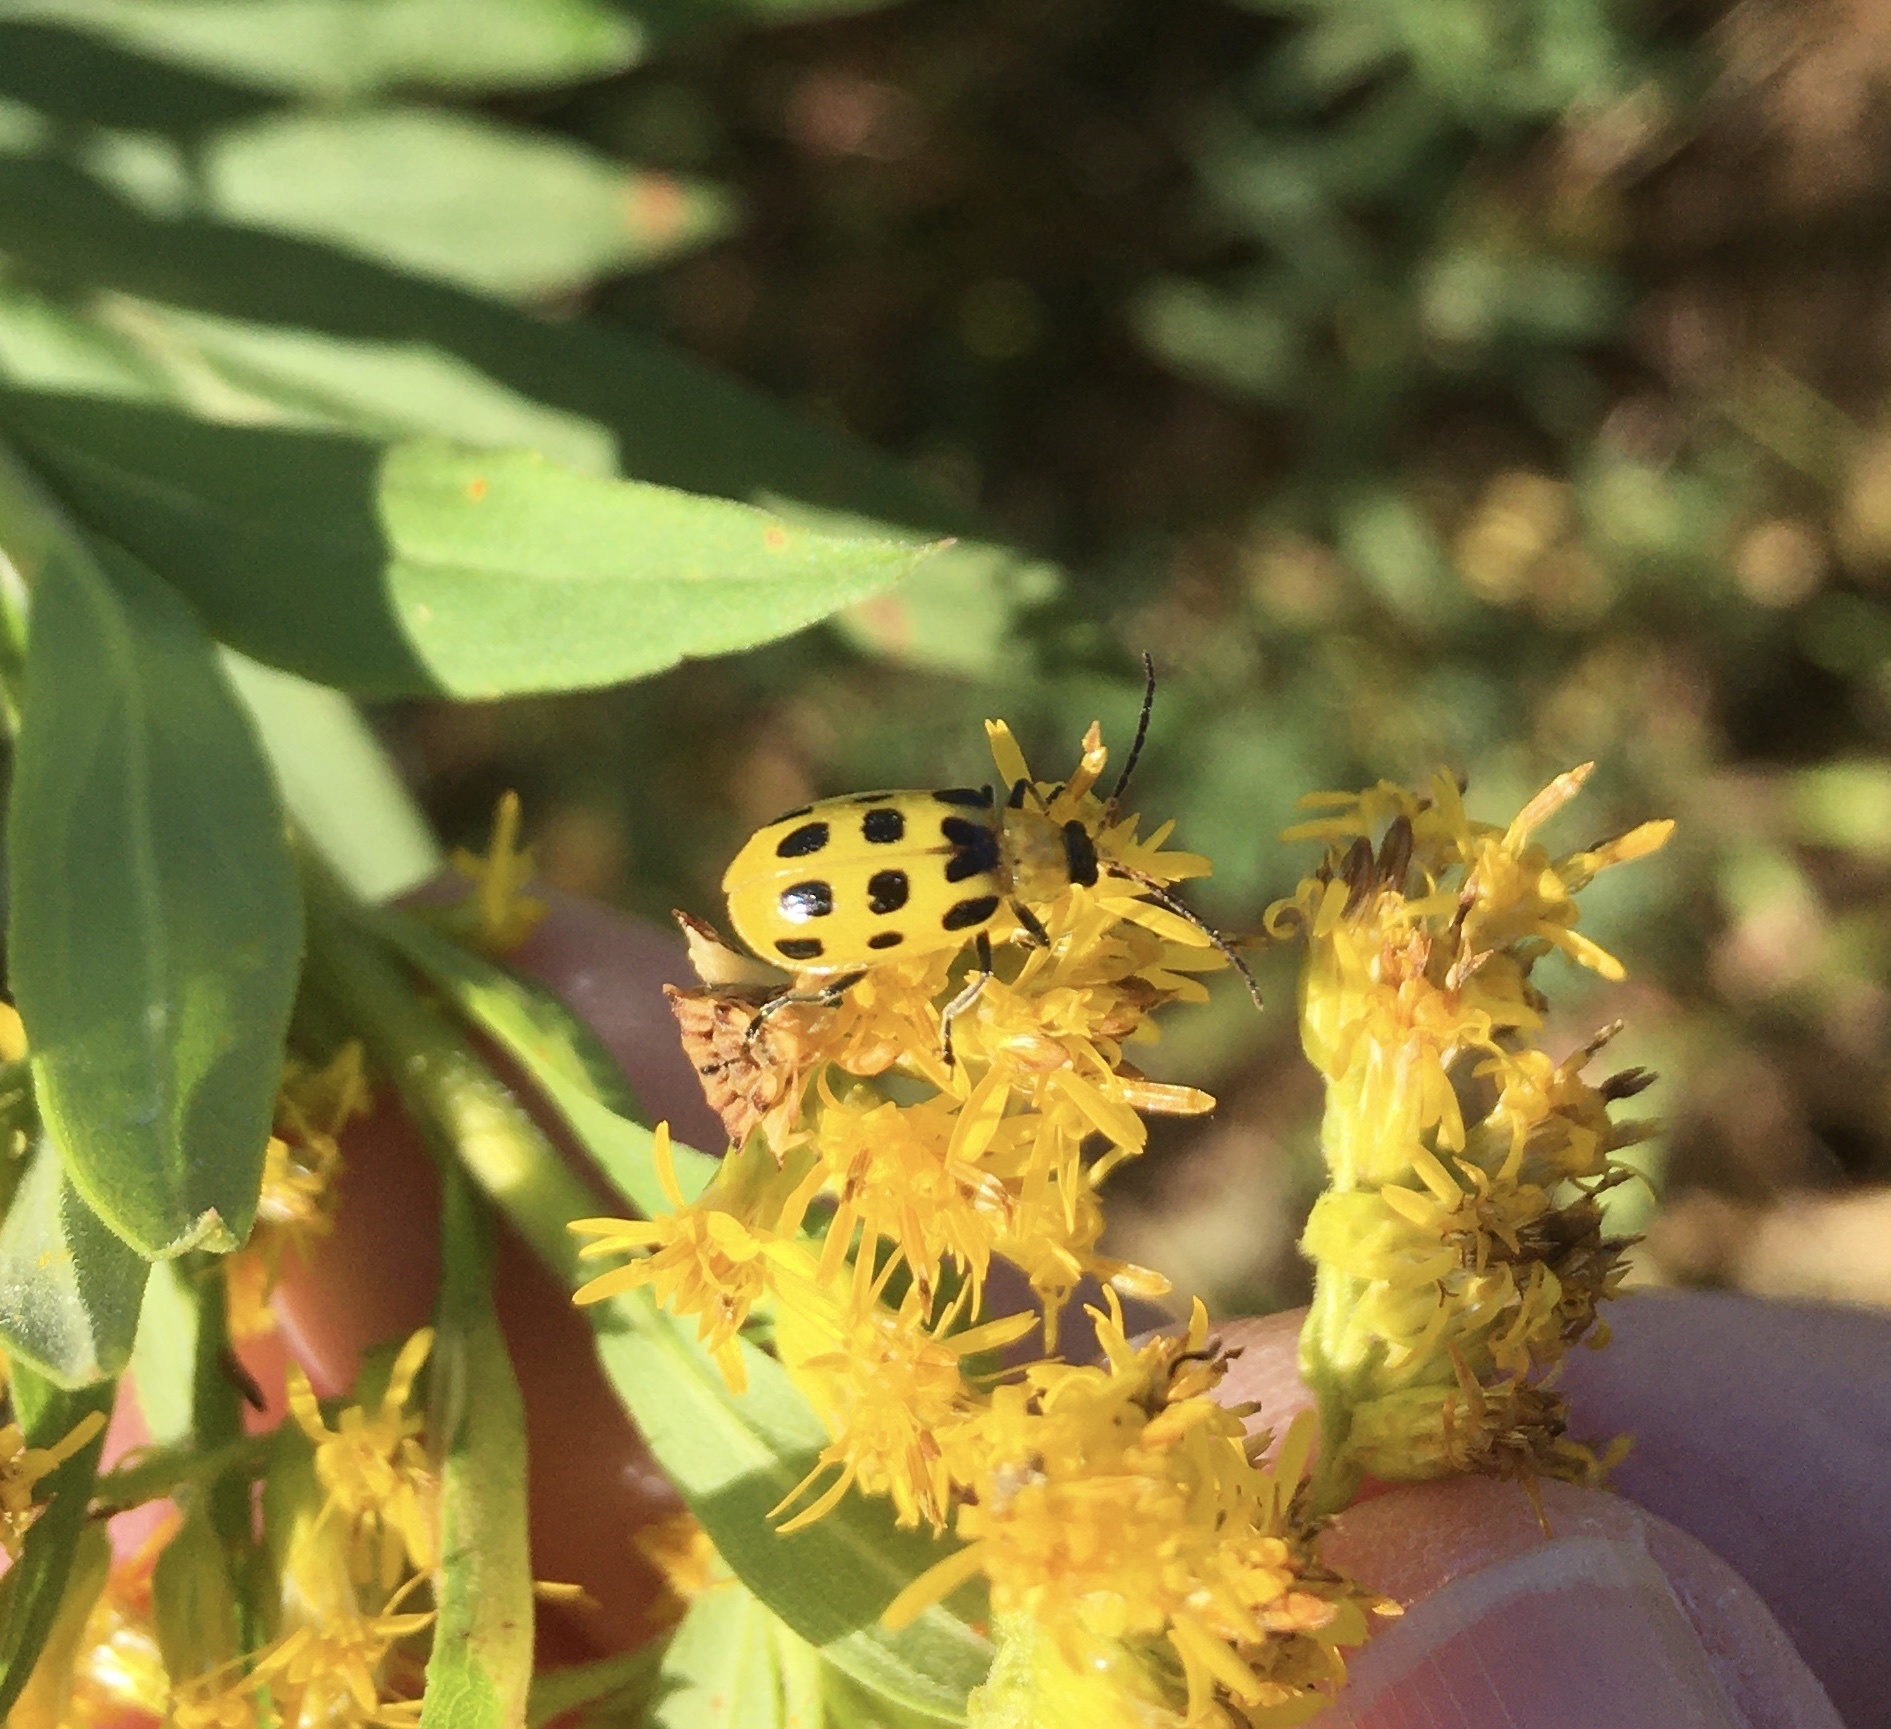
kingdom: Animalia
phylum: Arthropoda
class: Insecta
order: Coleoptera
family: Chrysomelidae
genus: Diabrotica
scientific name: Diabrotica undecimpunctata
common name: Spotted cucumber beetle
